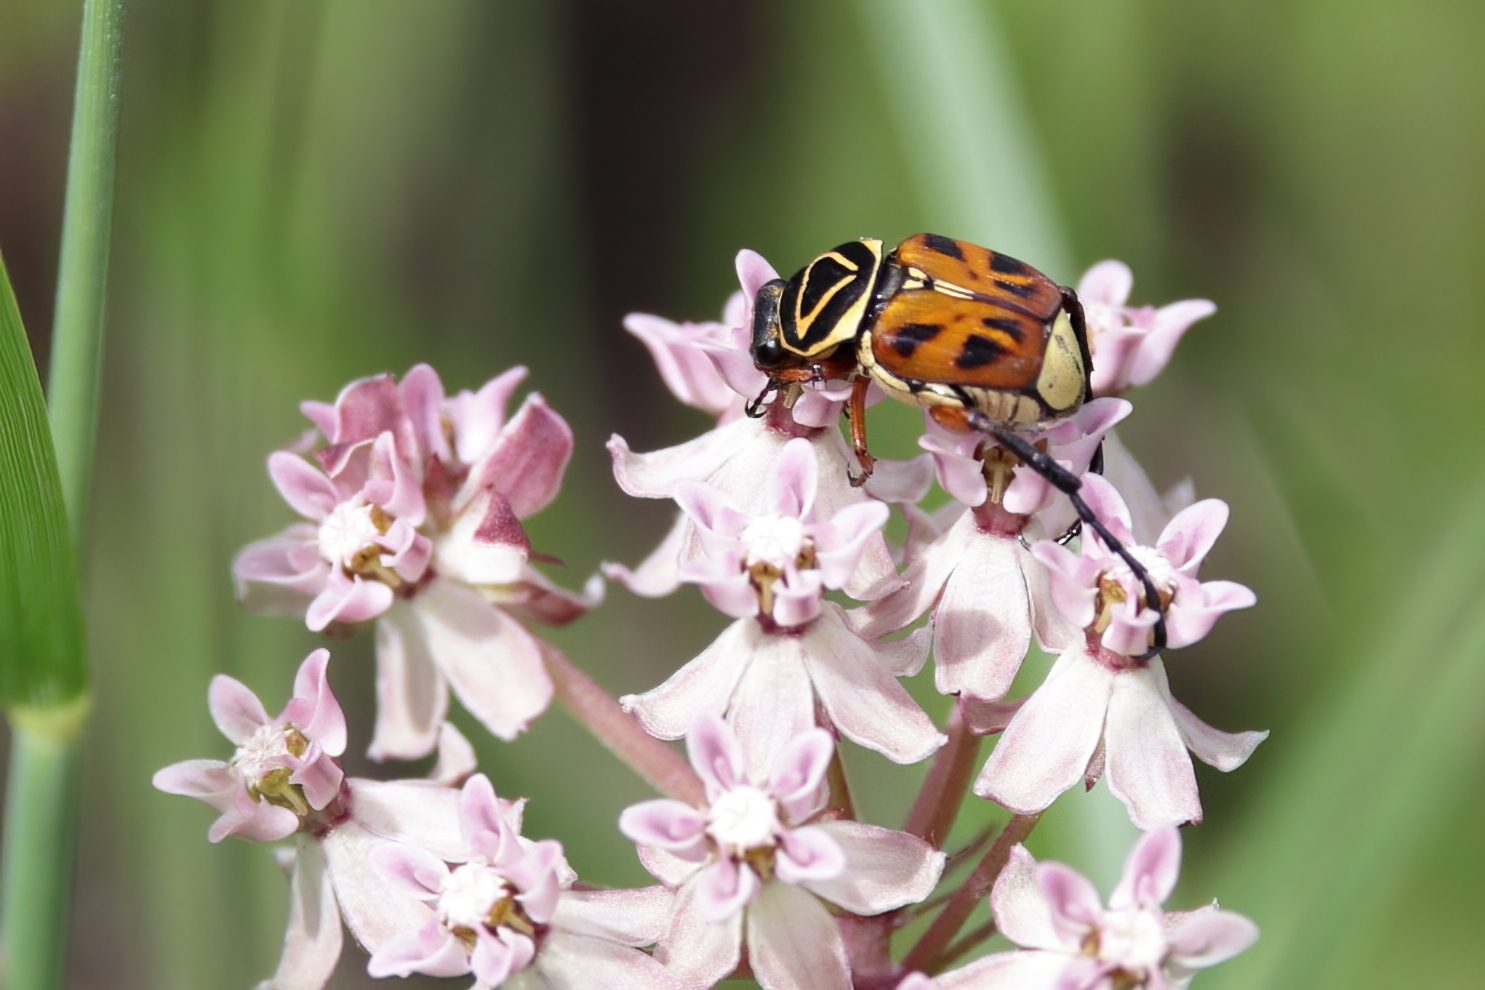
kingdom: Animalia
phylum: Arthropoda
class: Insecta
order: Coleoptera
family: Scarabaeidae
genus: Trigonopeltastes
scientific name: Trigonopeltastes delta
